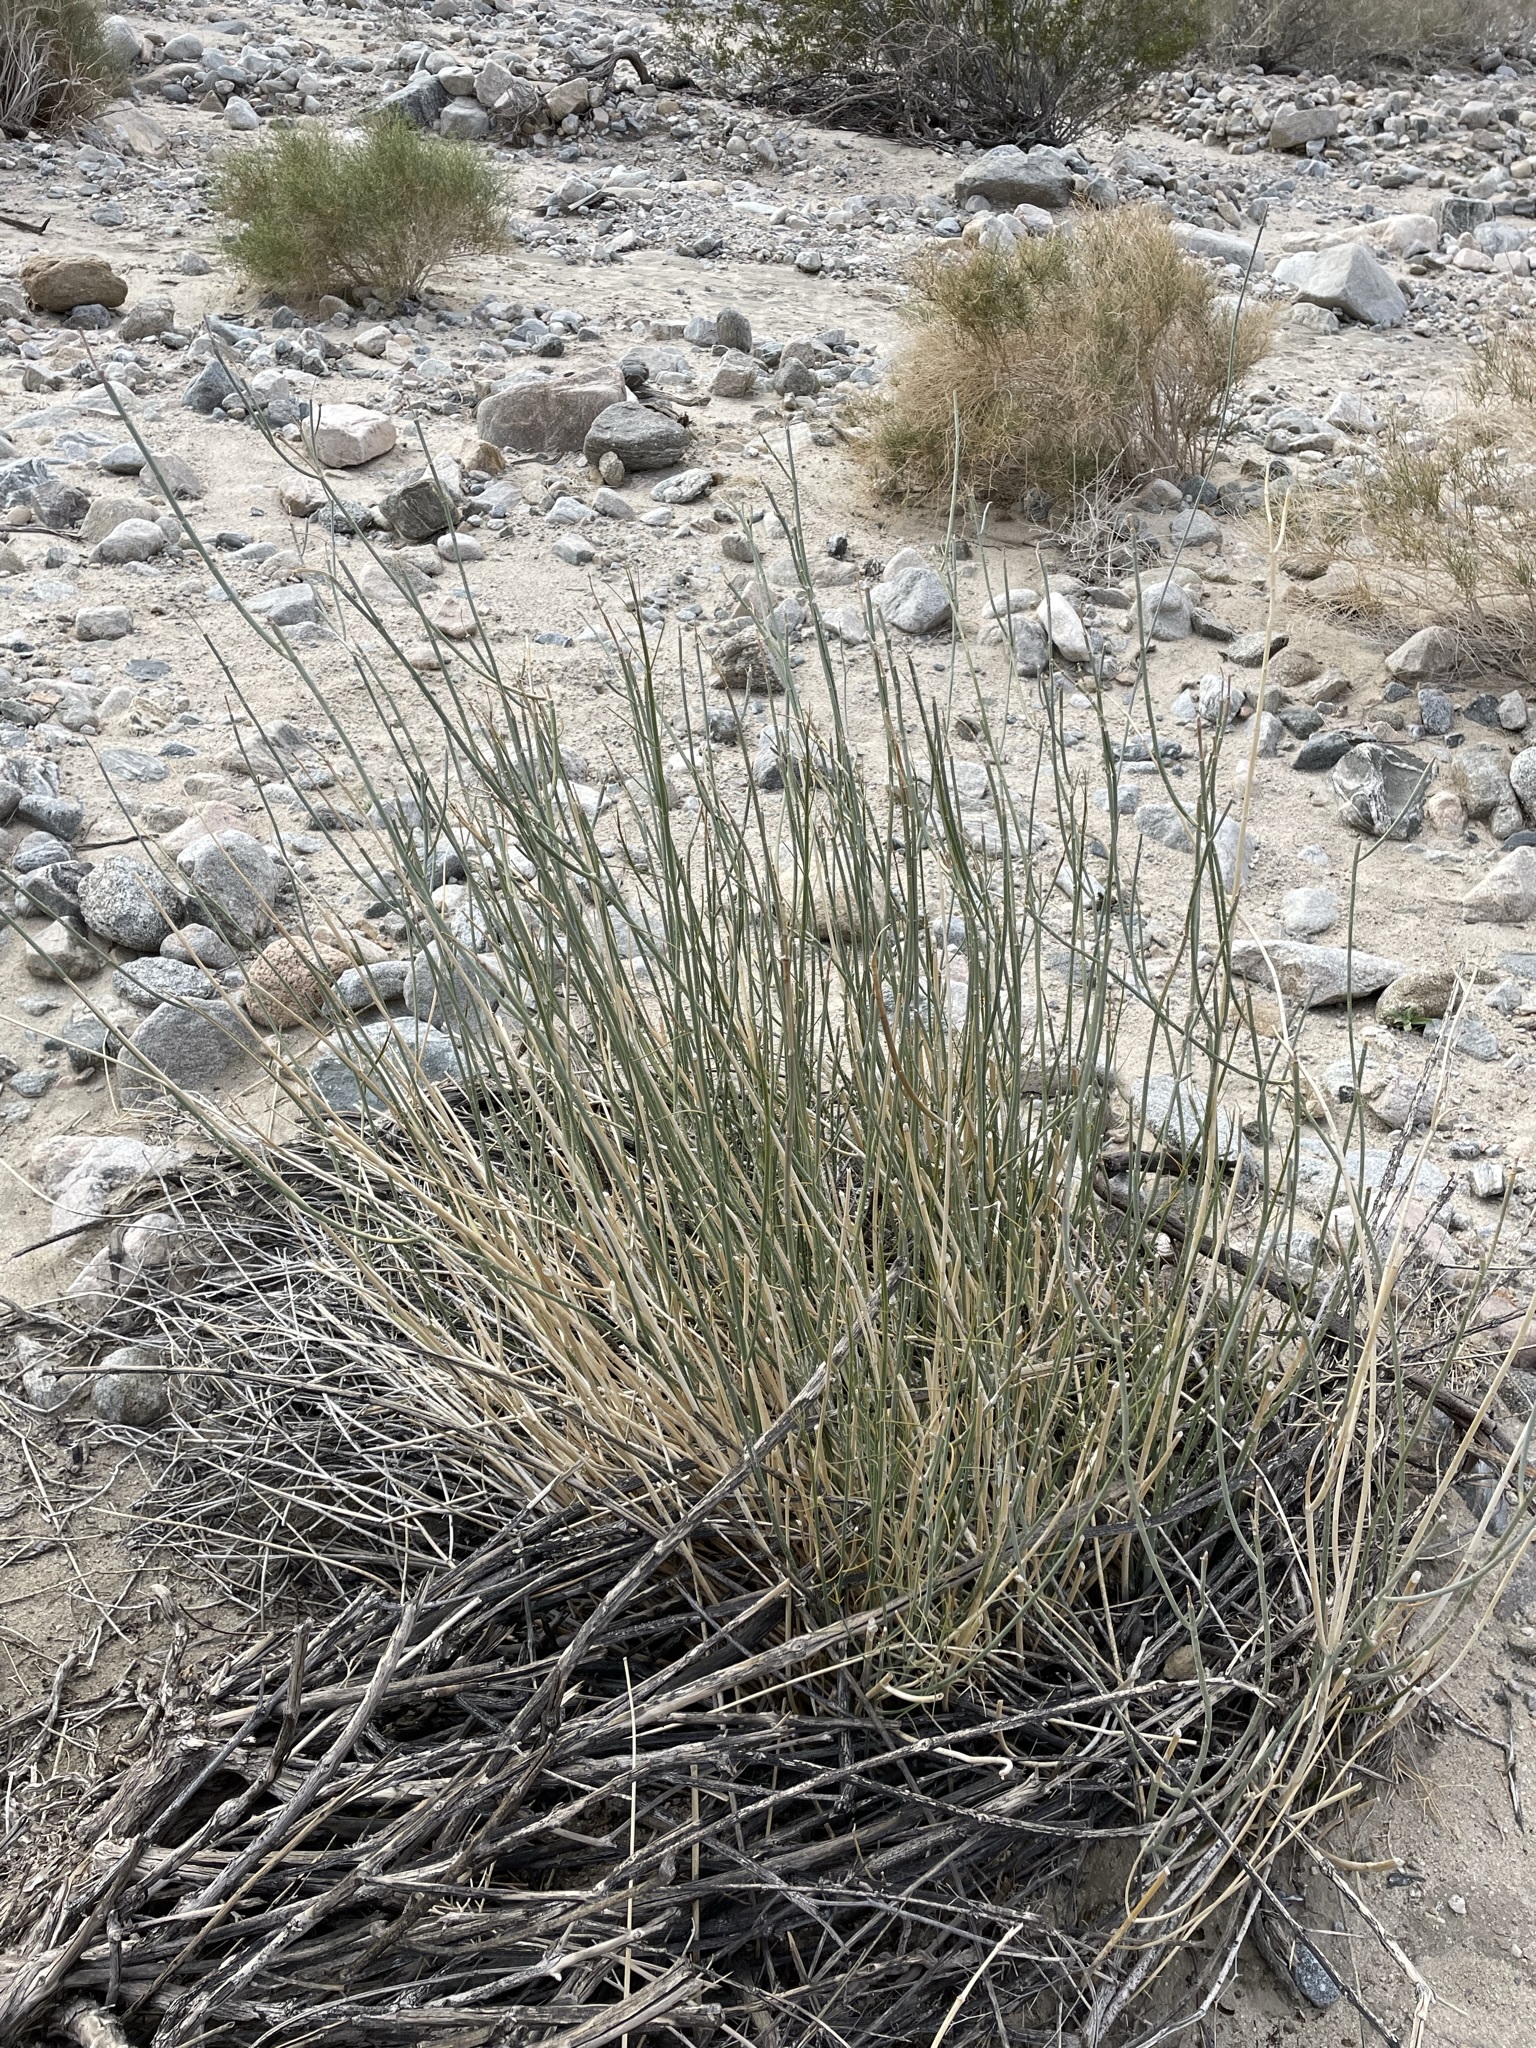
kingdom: Plantae
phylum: Tracheophyta
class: Magnoliopsida
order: Gentianales
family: Apocynaceae
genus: Asclepias
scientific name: Asclepias subulata
